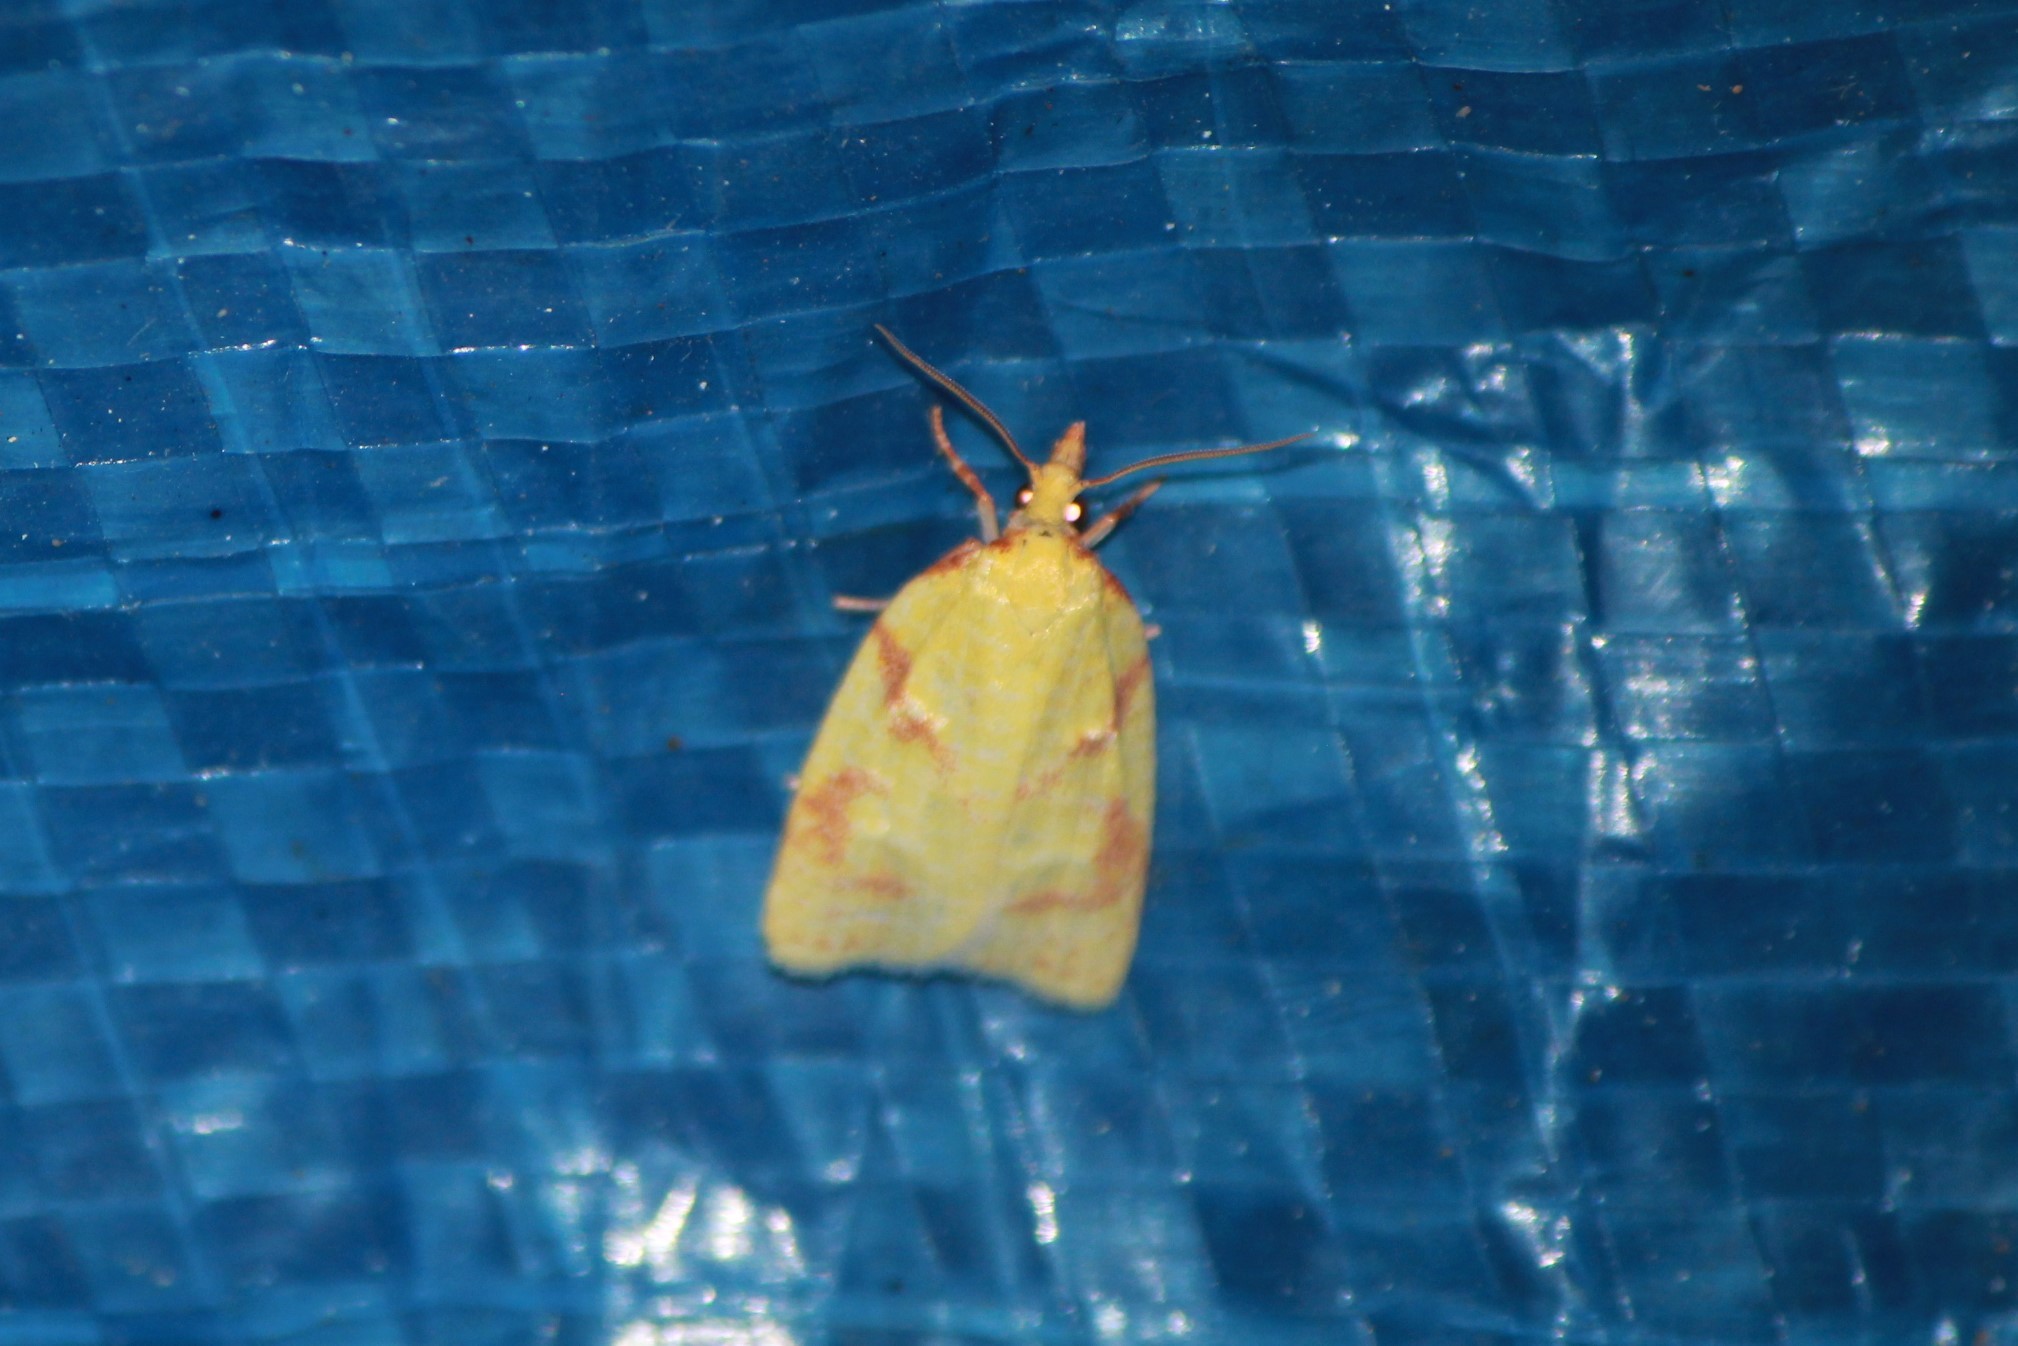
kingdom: Animalia
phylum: Arthropoda
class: Insecta
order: Lepidoptera
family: Tortricidae
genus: Cenopis
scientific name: Cenopis pettitana
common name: Maple-basswood leafroller moth
